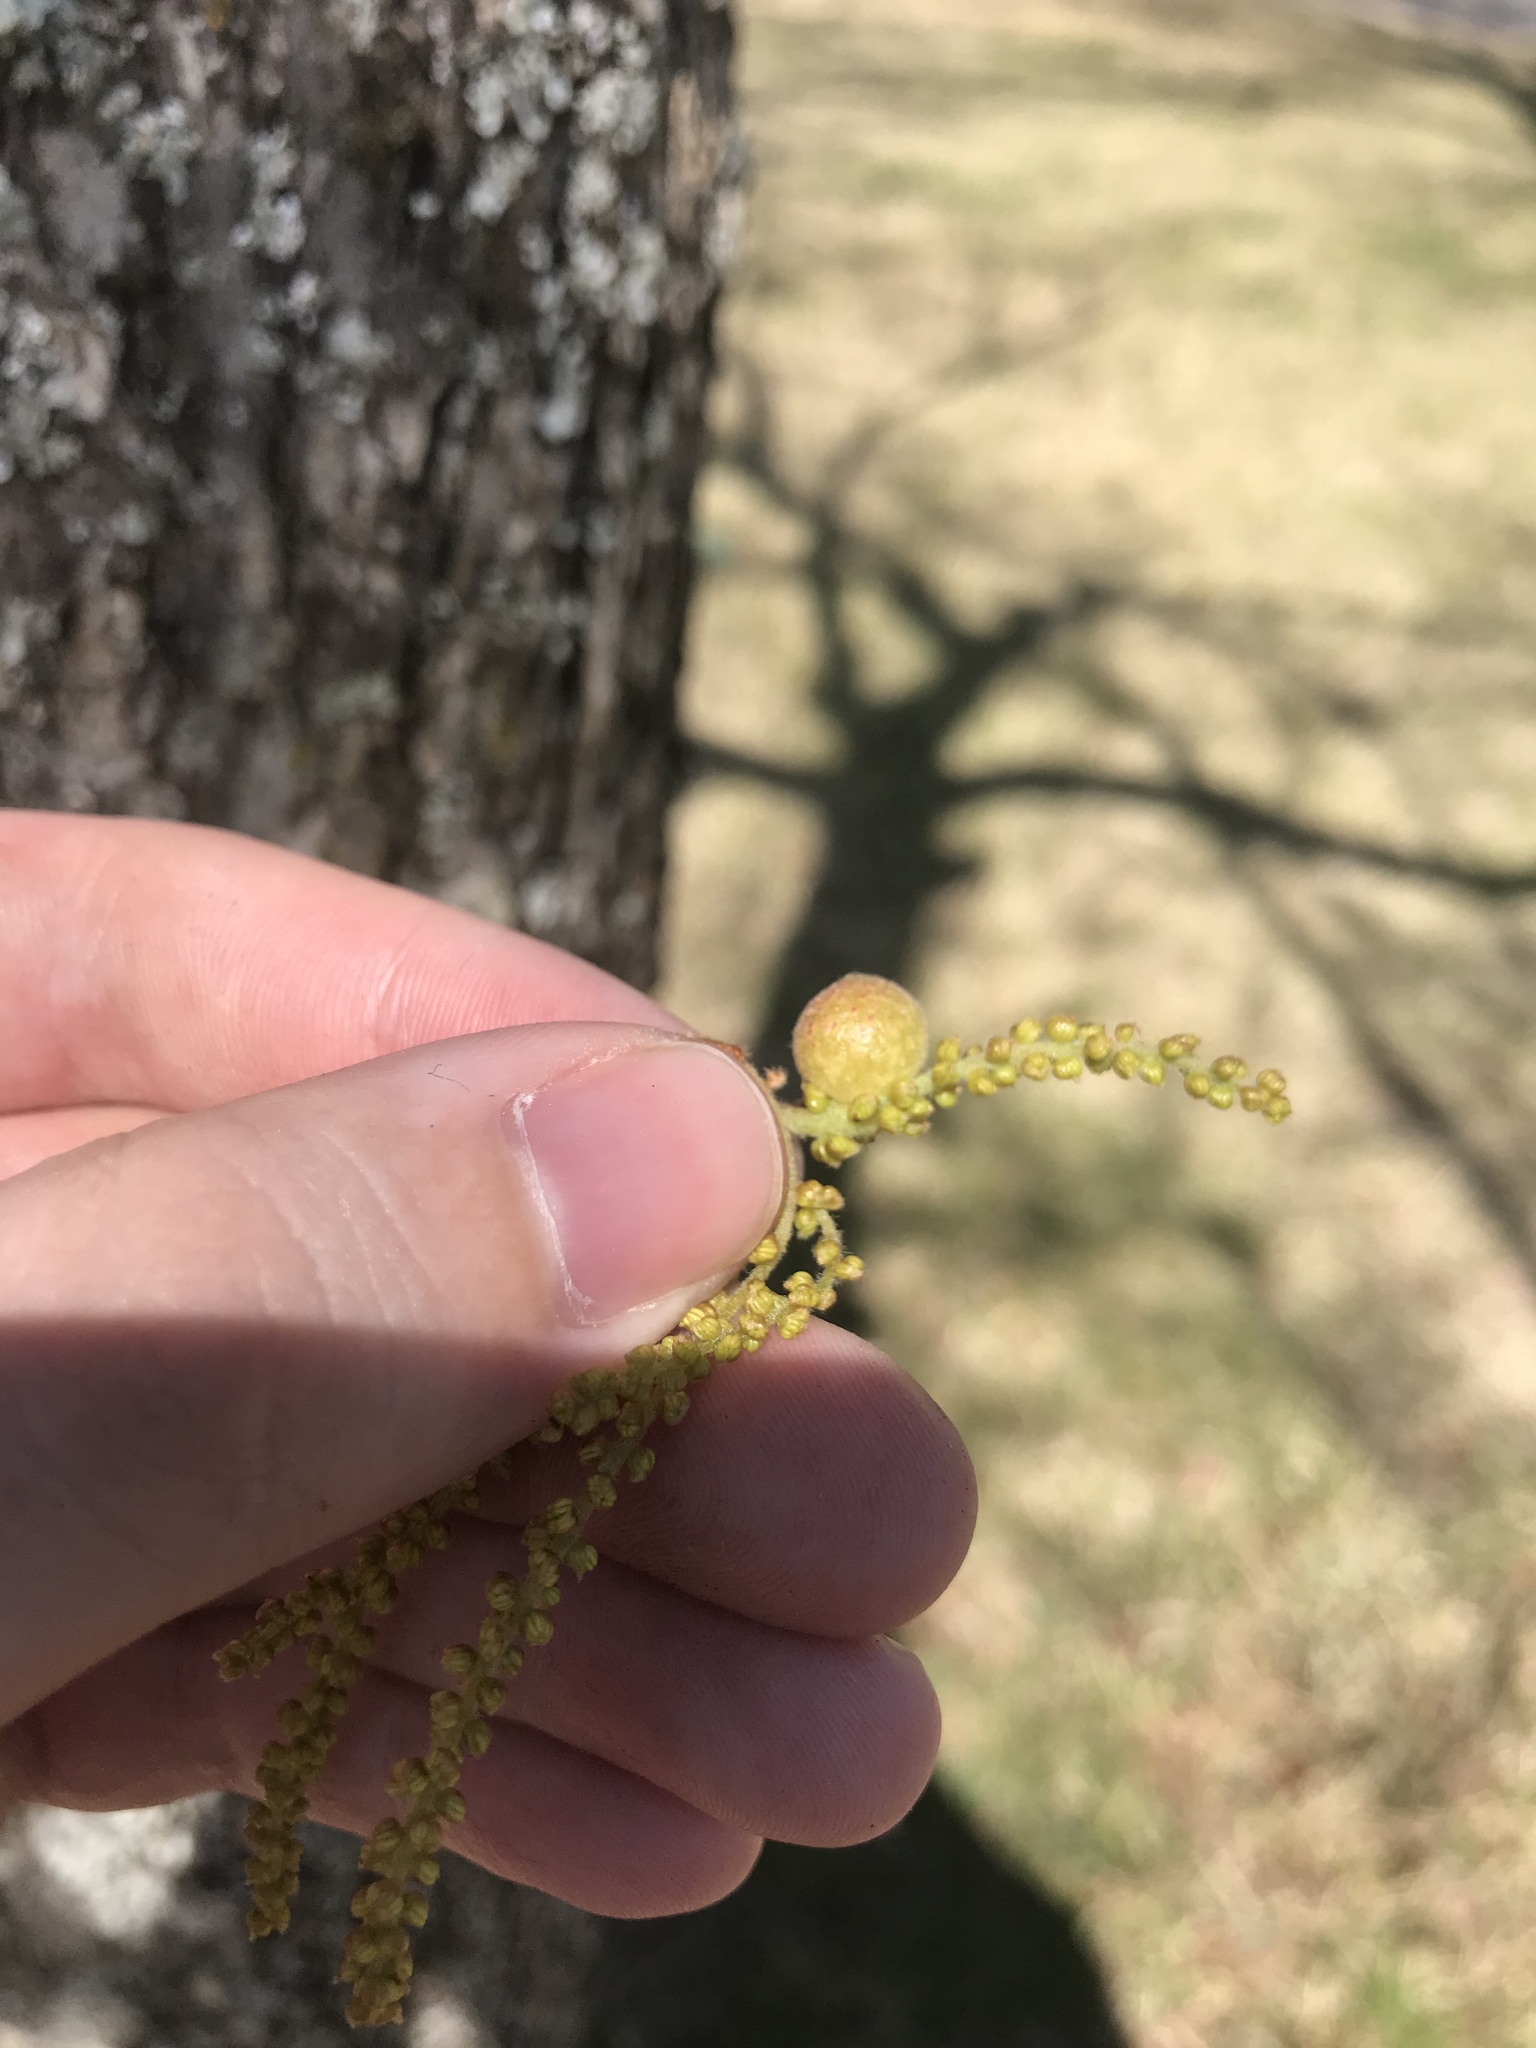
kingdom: Animalia
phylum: Arthropoda
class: Insecta
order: Hymenoptera
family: Cynipidae
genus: Dryocosmus
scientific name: Dryocosmus quercuspalustris
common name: Succulent oak gall wasp
